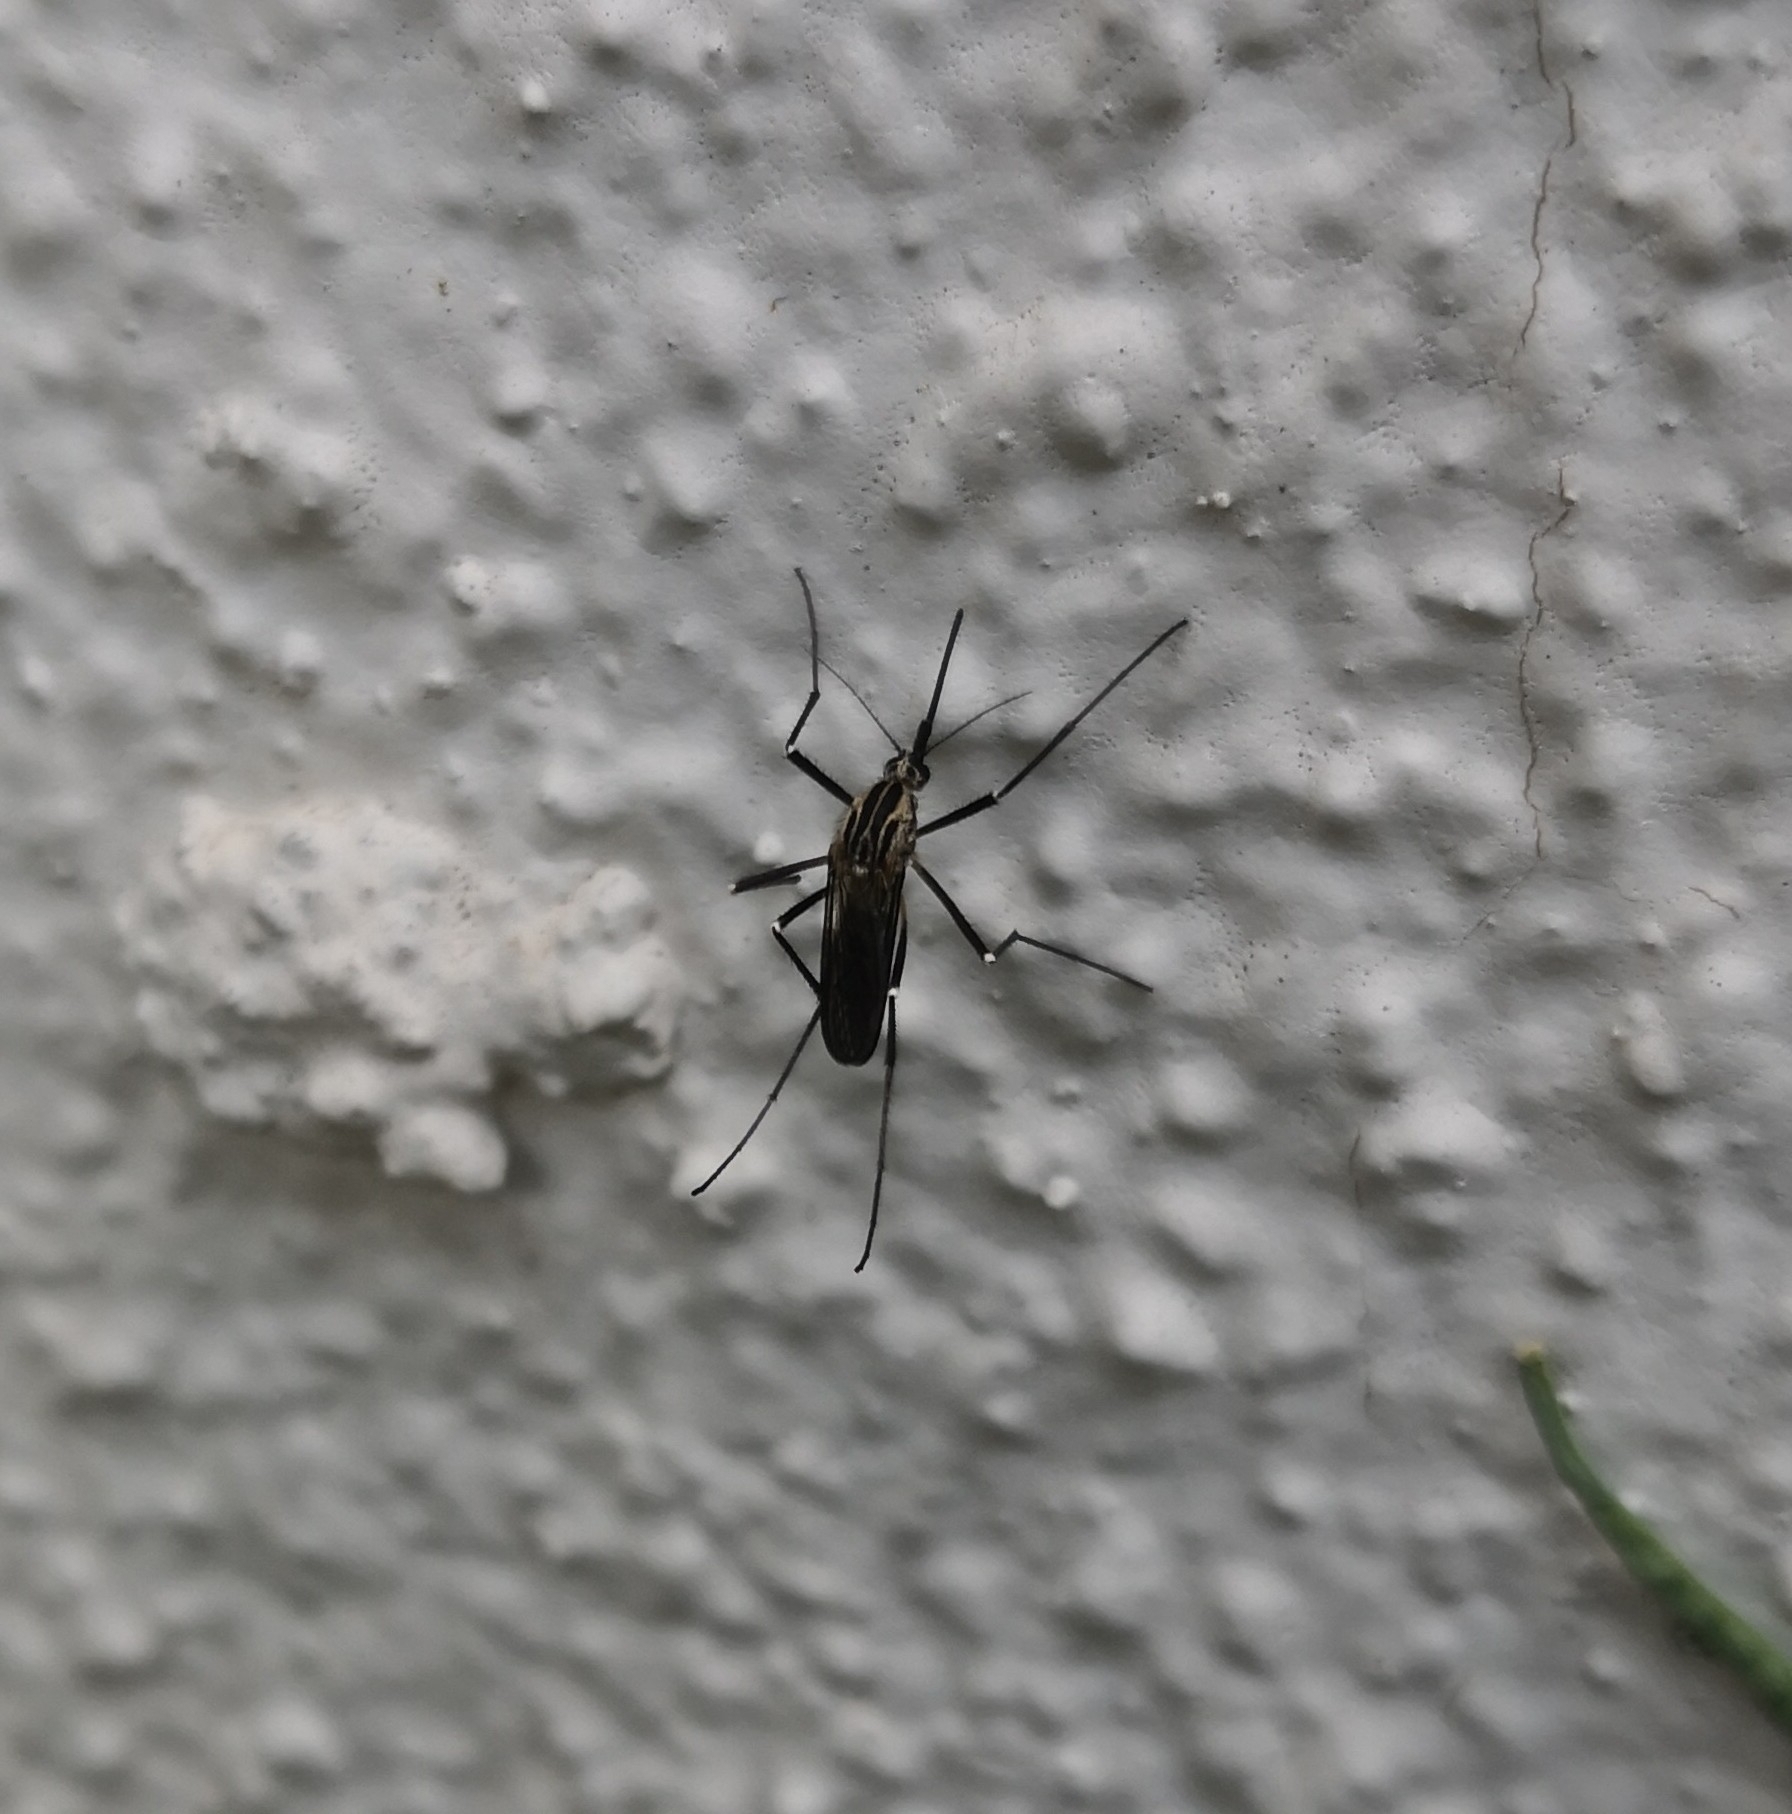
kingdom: Animalia
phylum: Arthropoda
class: Insecta
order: Diptera
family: Culicidae
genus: Aedes
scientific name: Aedes geniculatus
